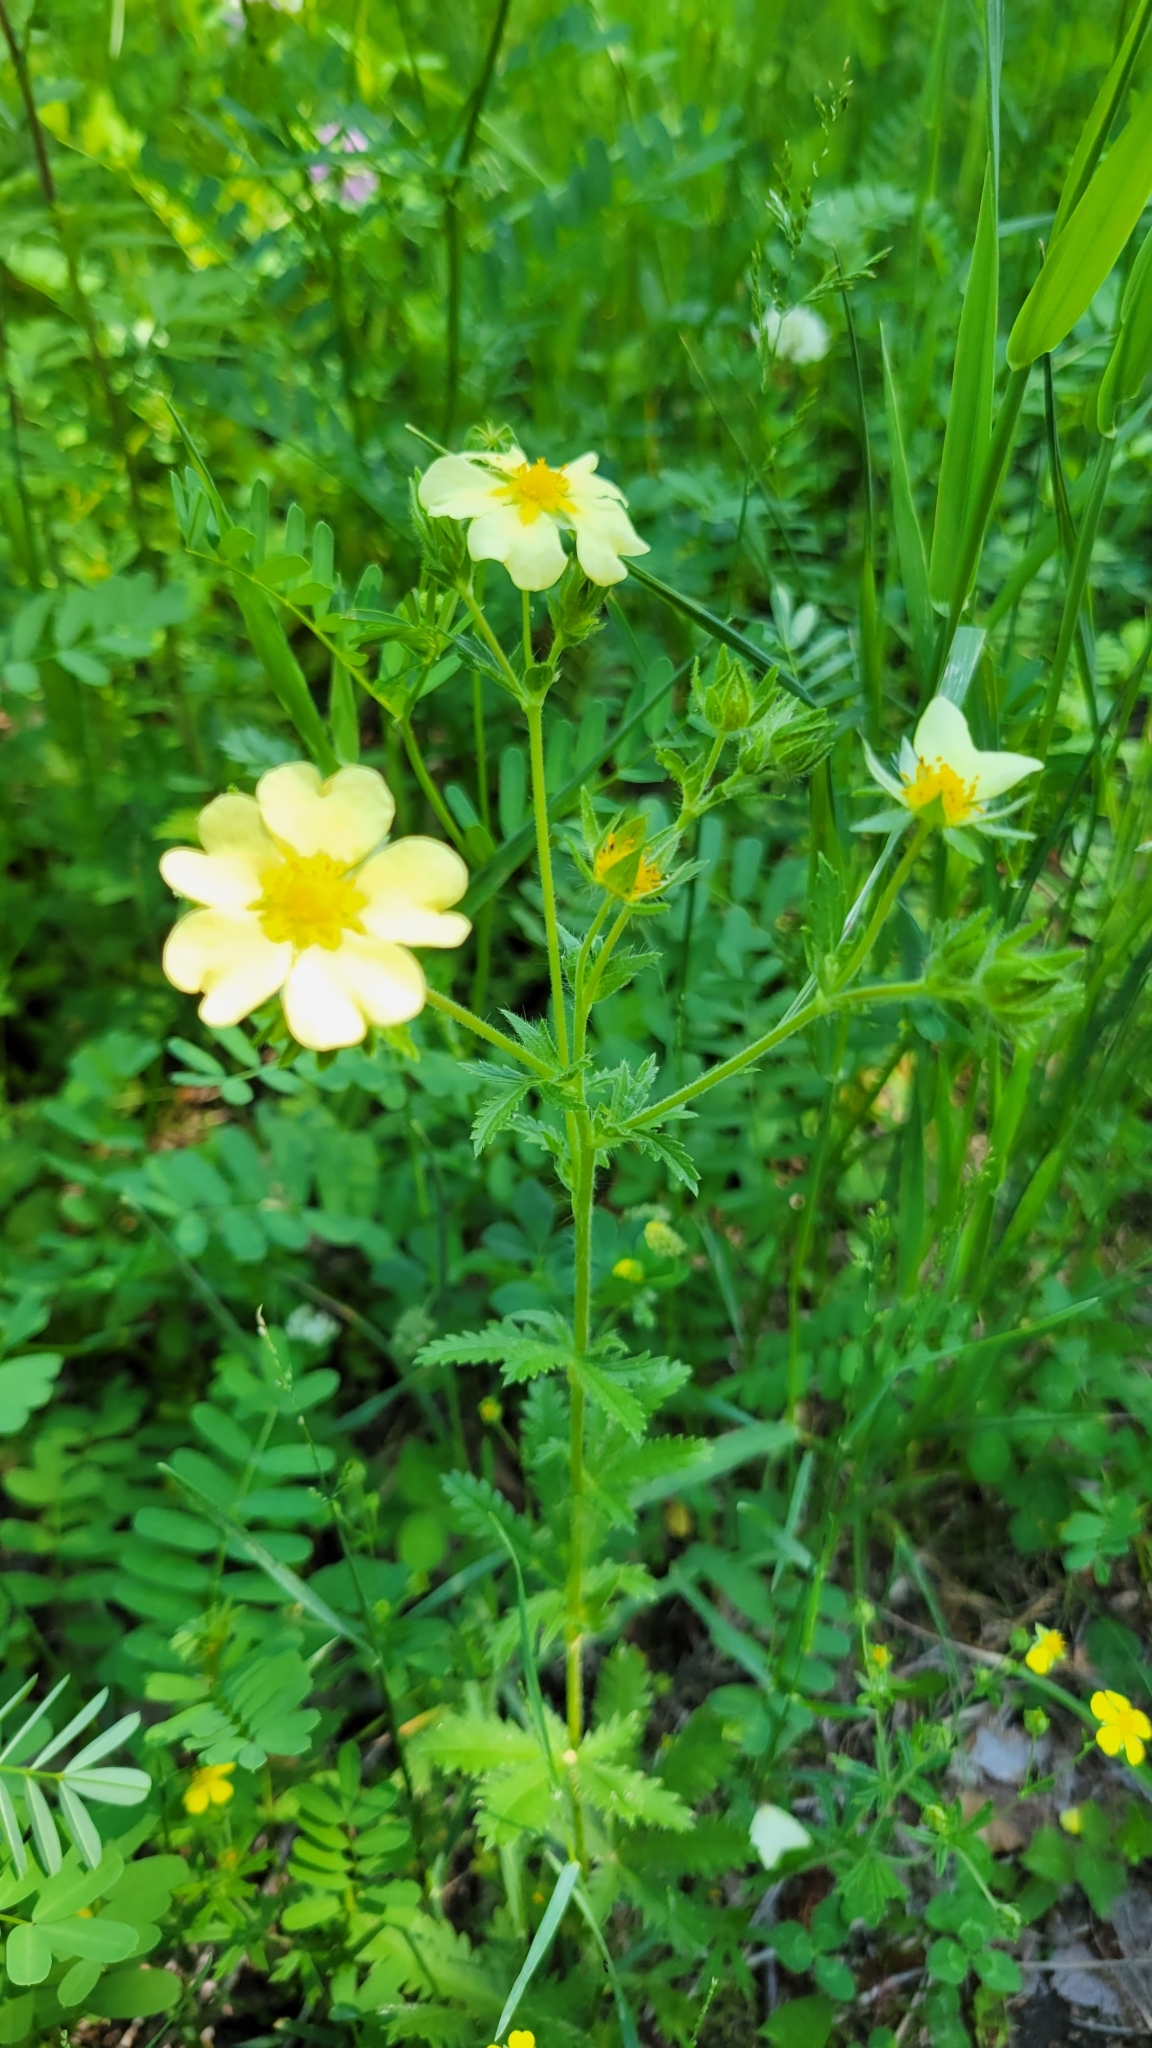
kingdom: Plantae
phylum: Tracheophyta
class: Magnoliopsida
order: Rosales
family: Rosaceae
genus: Potentilla
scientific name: Potentilla recta
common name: Sulphur cinquefoil
